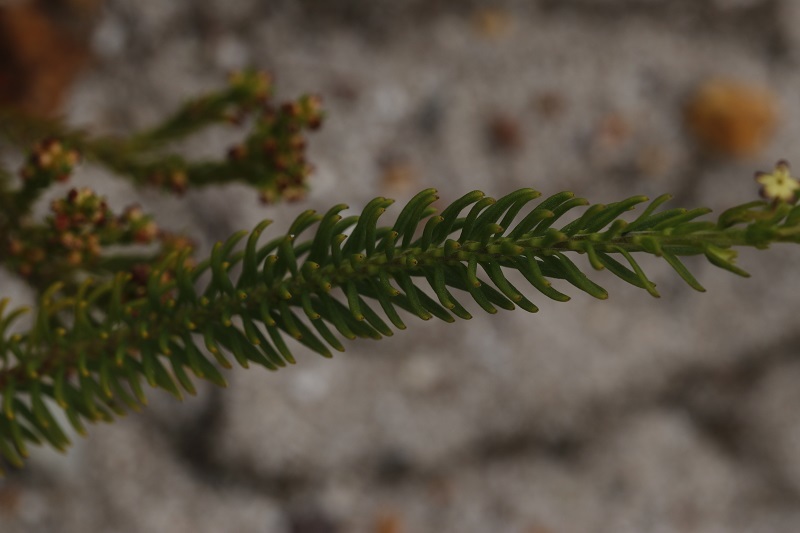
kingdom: Plantae
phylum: Tracheophyta
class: Magnoliopsida
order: Lamiales
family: Scrophulariaceae
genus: Microdon
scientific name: Microdon dubius
